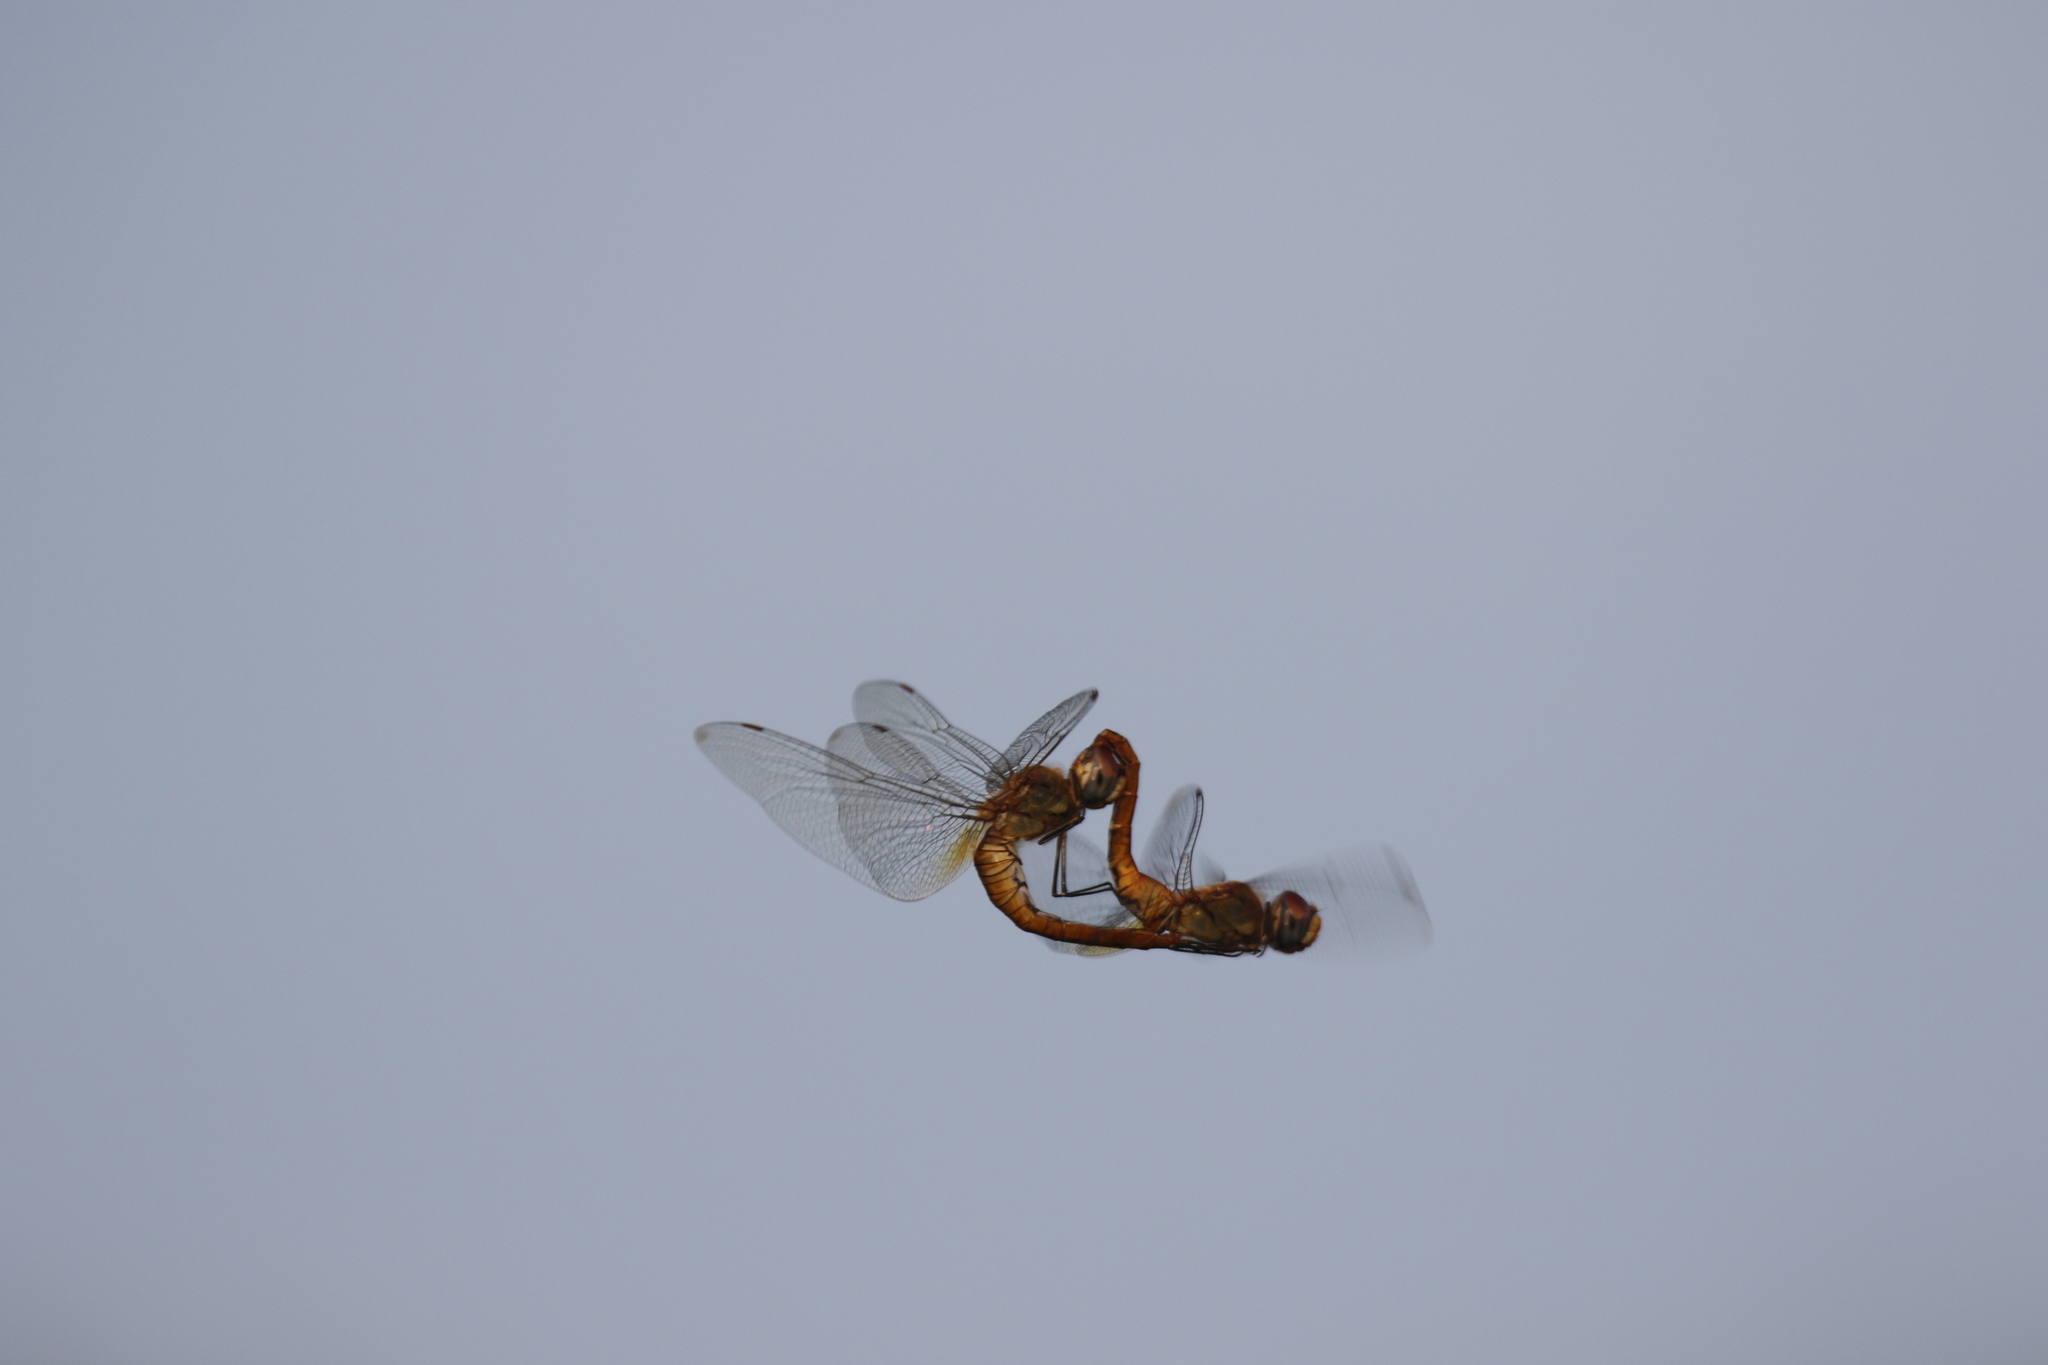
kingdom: Animalia
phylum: Arthropoda
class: Insecta
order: Odonata
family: Libellulidae
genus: Pantala
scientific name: Pantala flavescens
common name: Wandering glider
